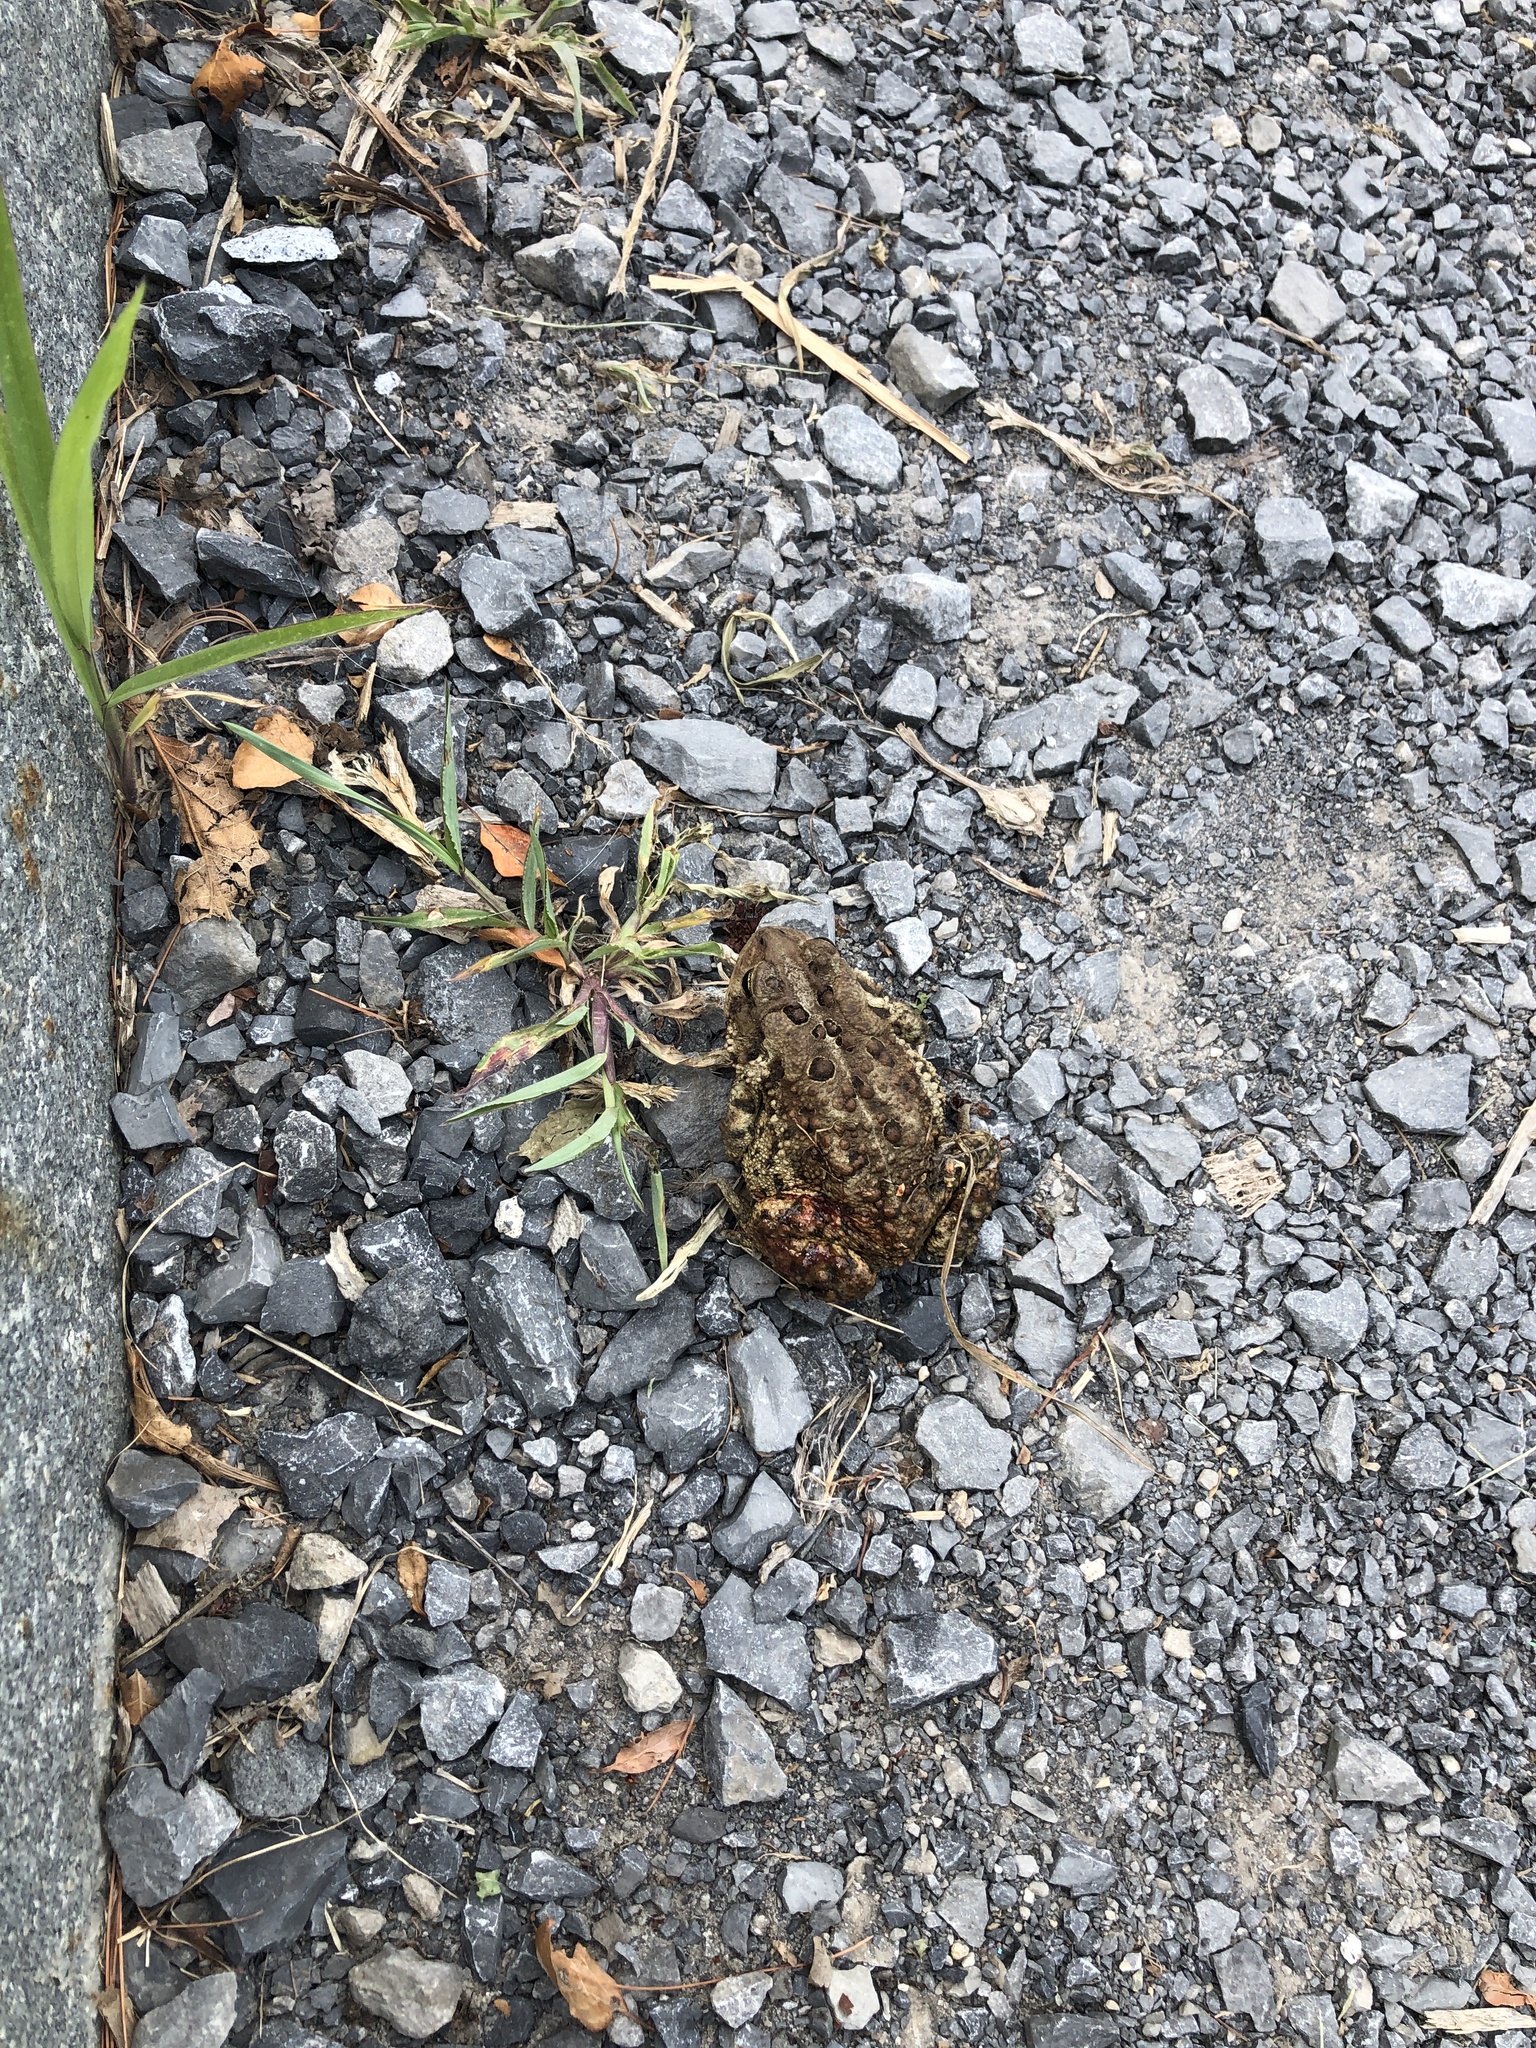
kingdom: Animalia
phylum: Chordata
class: Amphibia
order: Anura
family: Bufonidae
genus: Anaxyrus
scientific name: Anaxyrus americanus
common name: American toad
